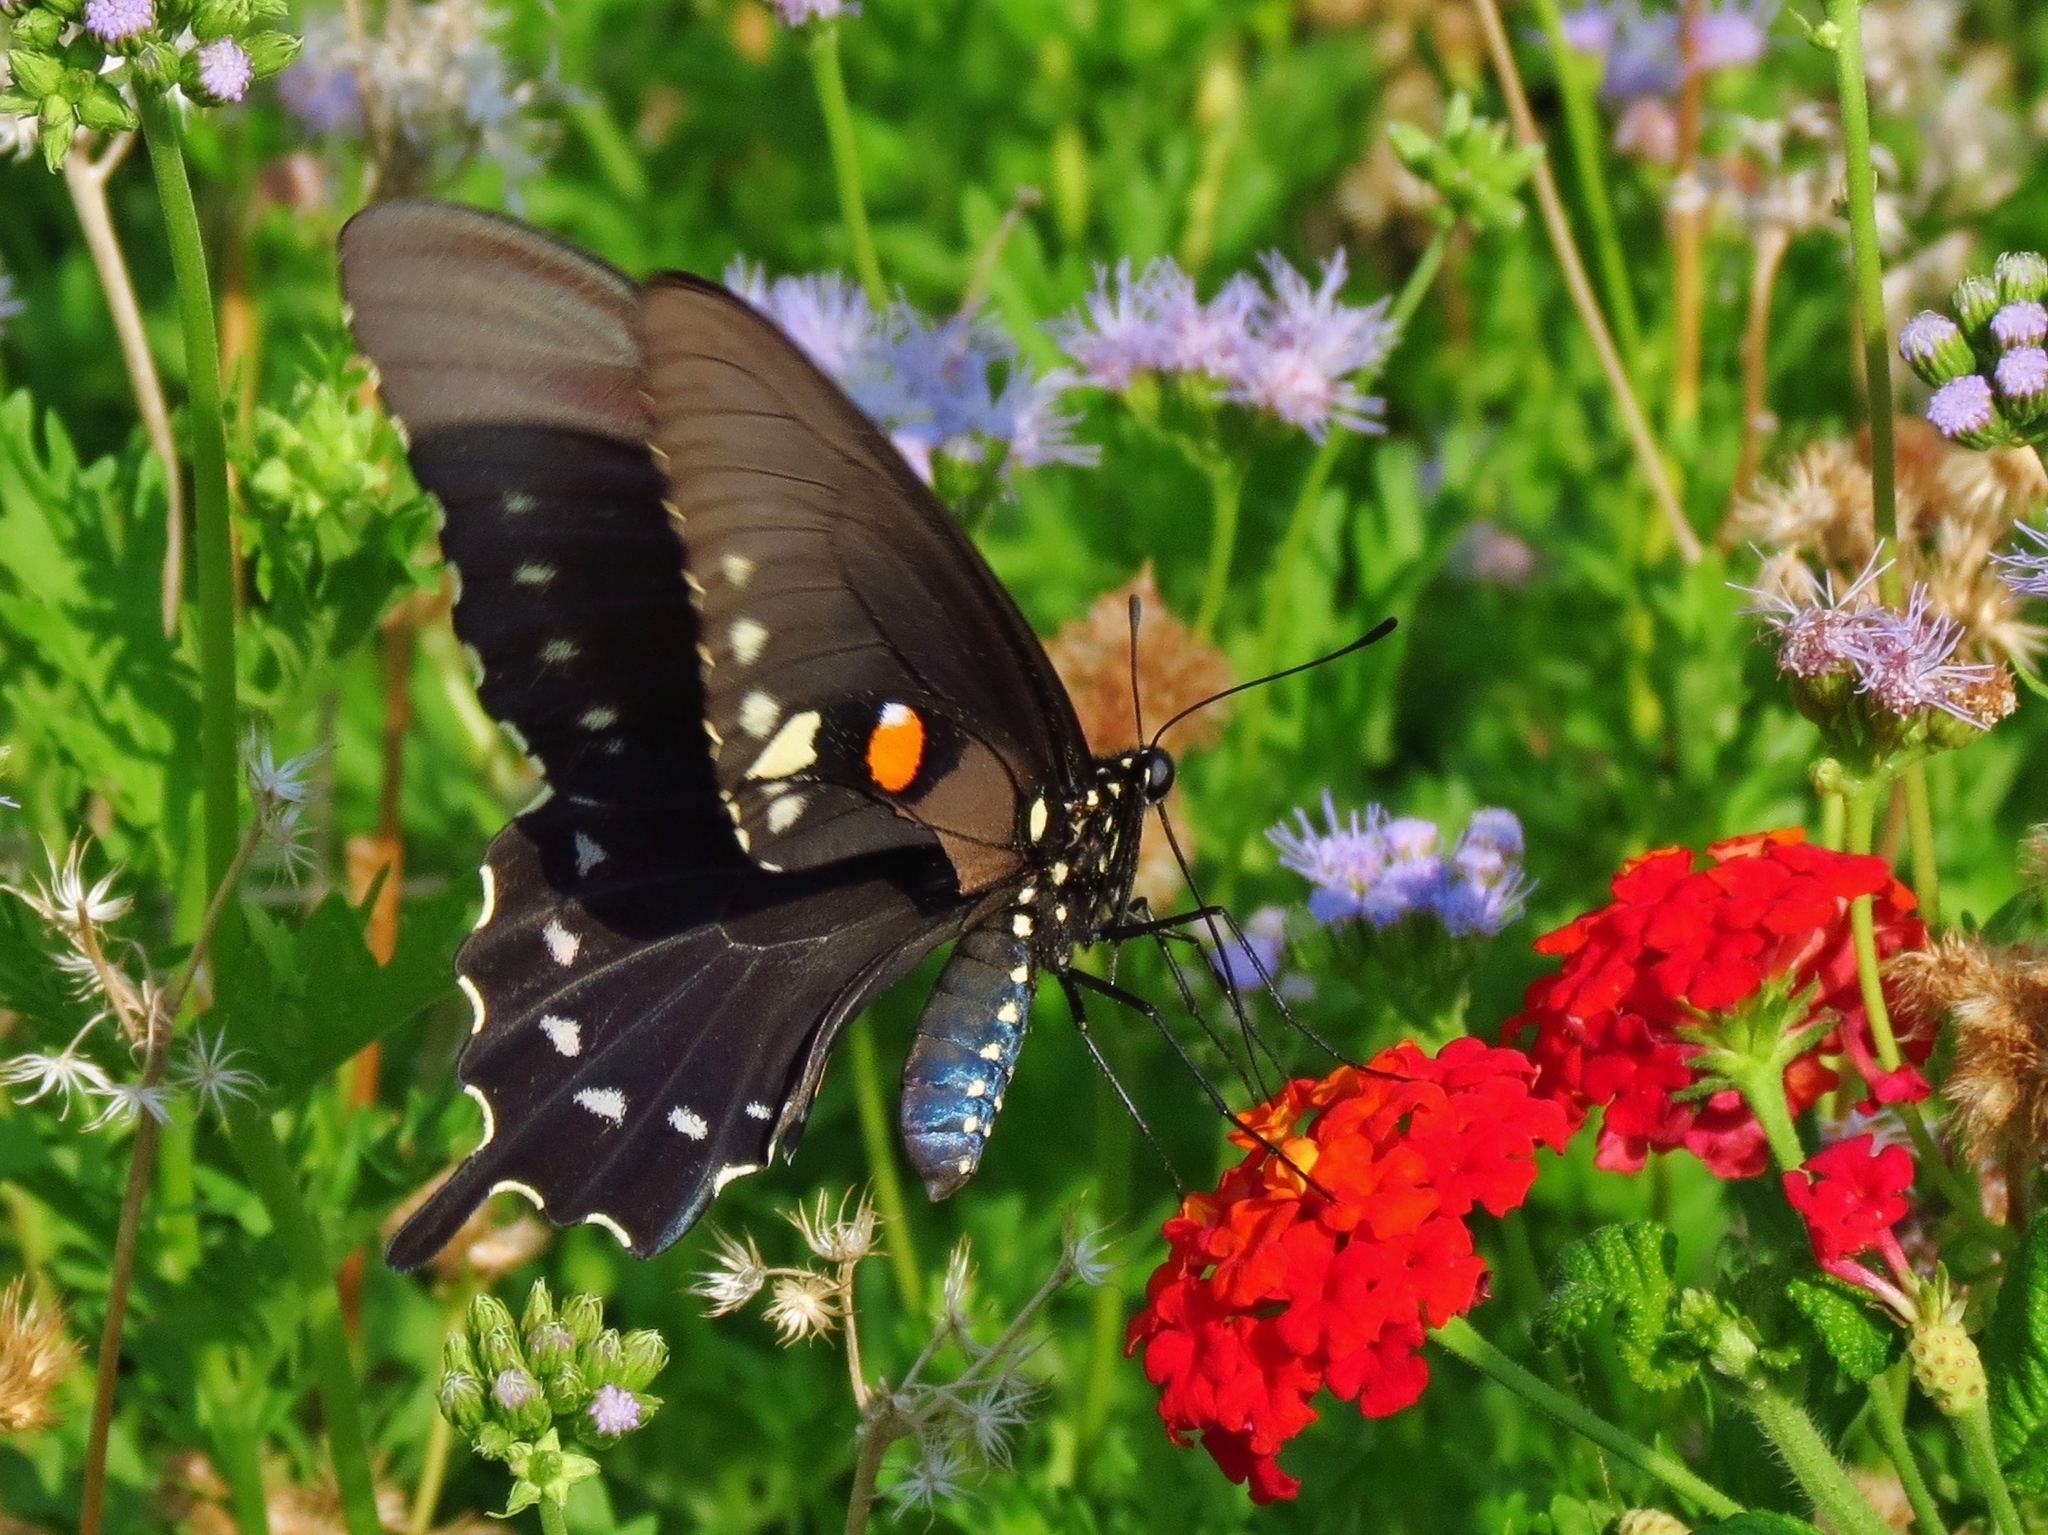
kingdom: Animalia
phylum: Arthropoda
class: Insecta
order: Lepidoptera
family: Papilionidae
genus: Battus
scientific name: Battus philenor
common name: Pipevine swallowtail
